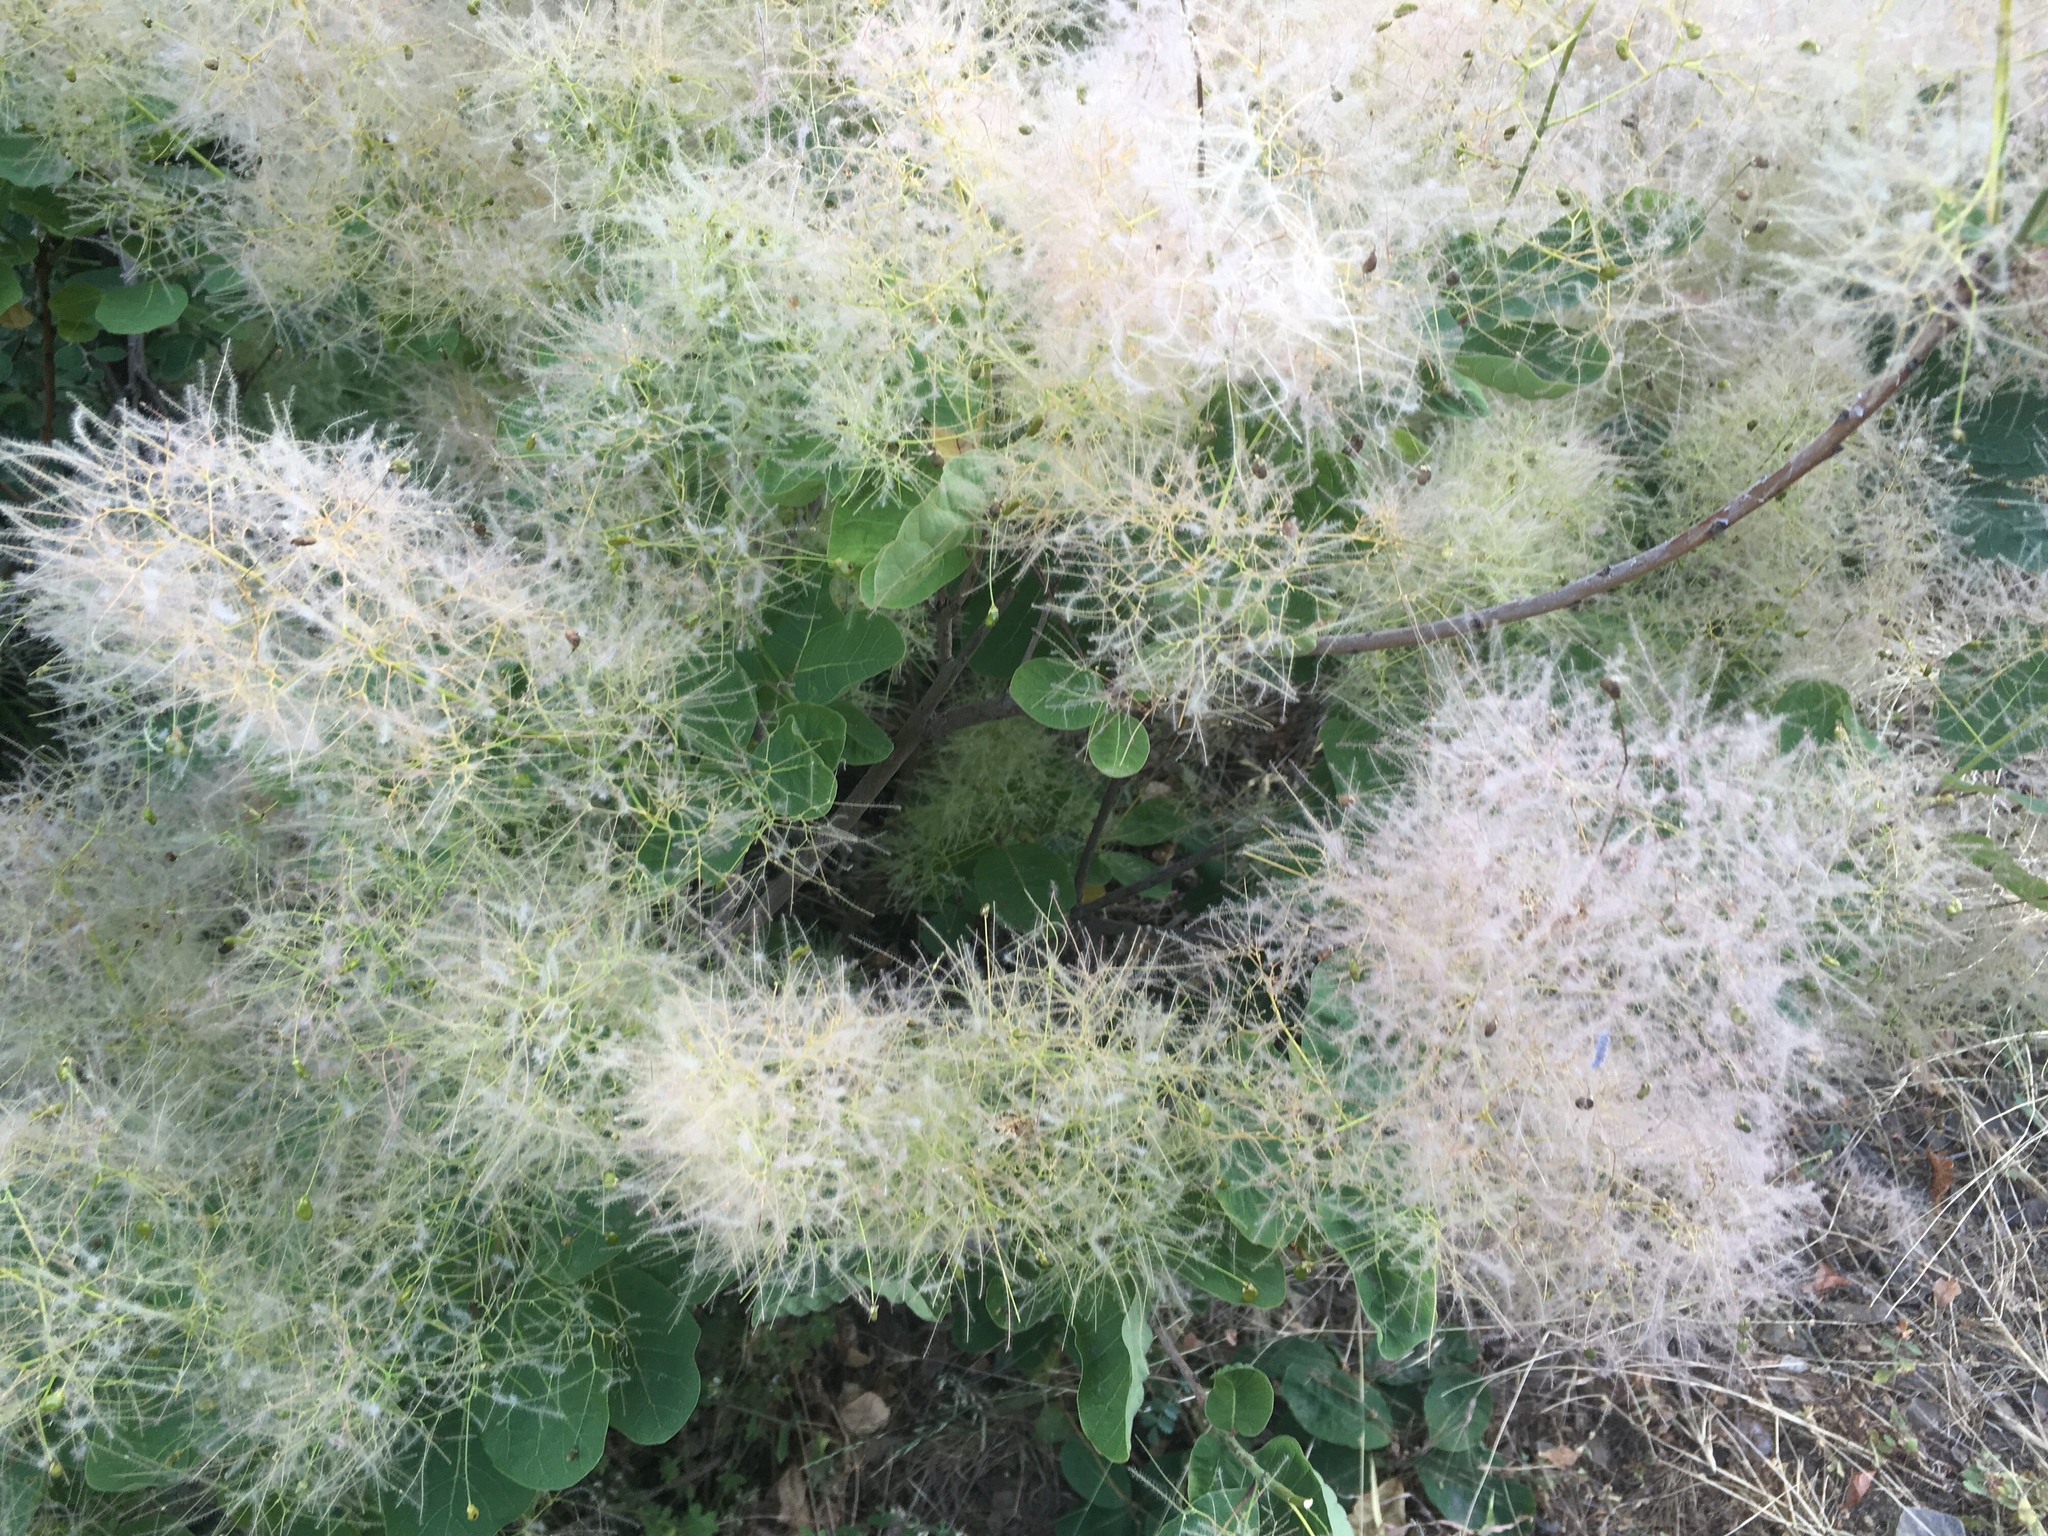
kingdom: Plantae
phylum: Tracheophyta
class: Magnoliopsida
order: Sapindales
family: Anacardiaceae
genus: Cotinus
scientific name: Cotinus coggygria
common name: Smoke-tree
